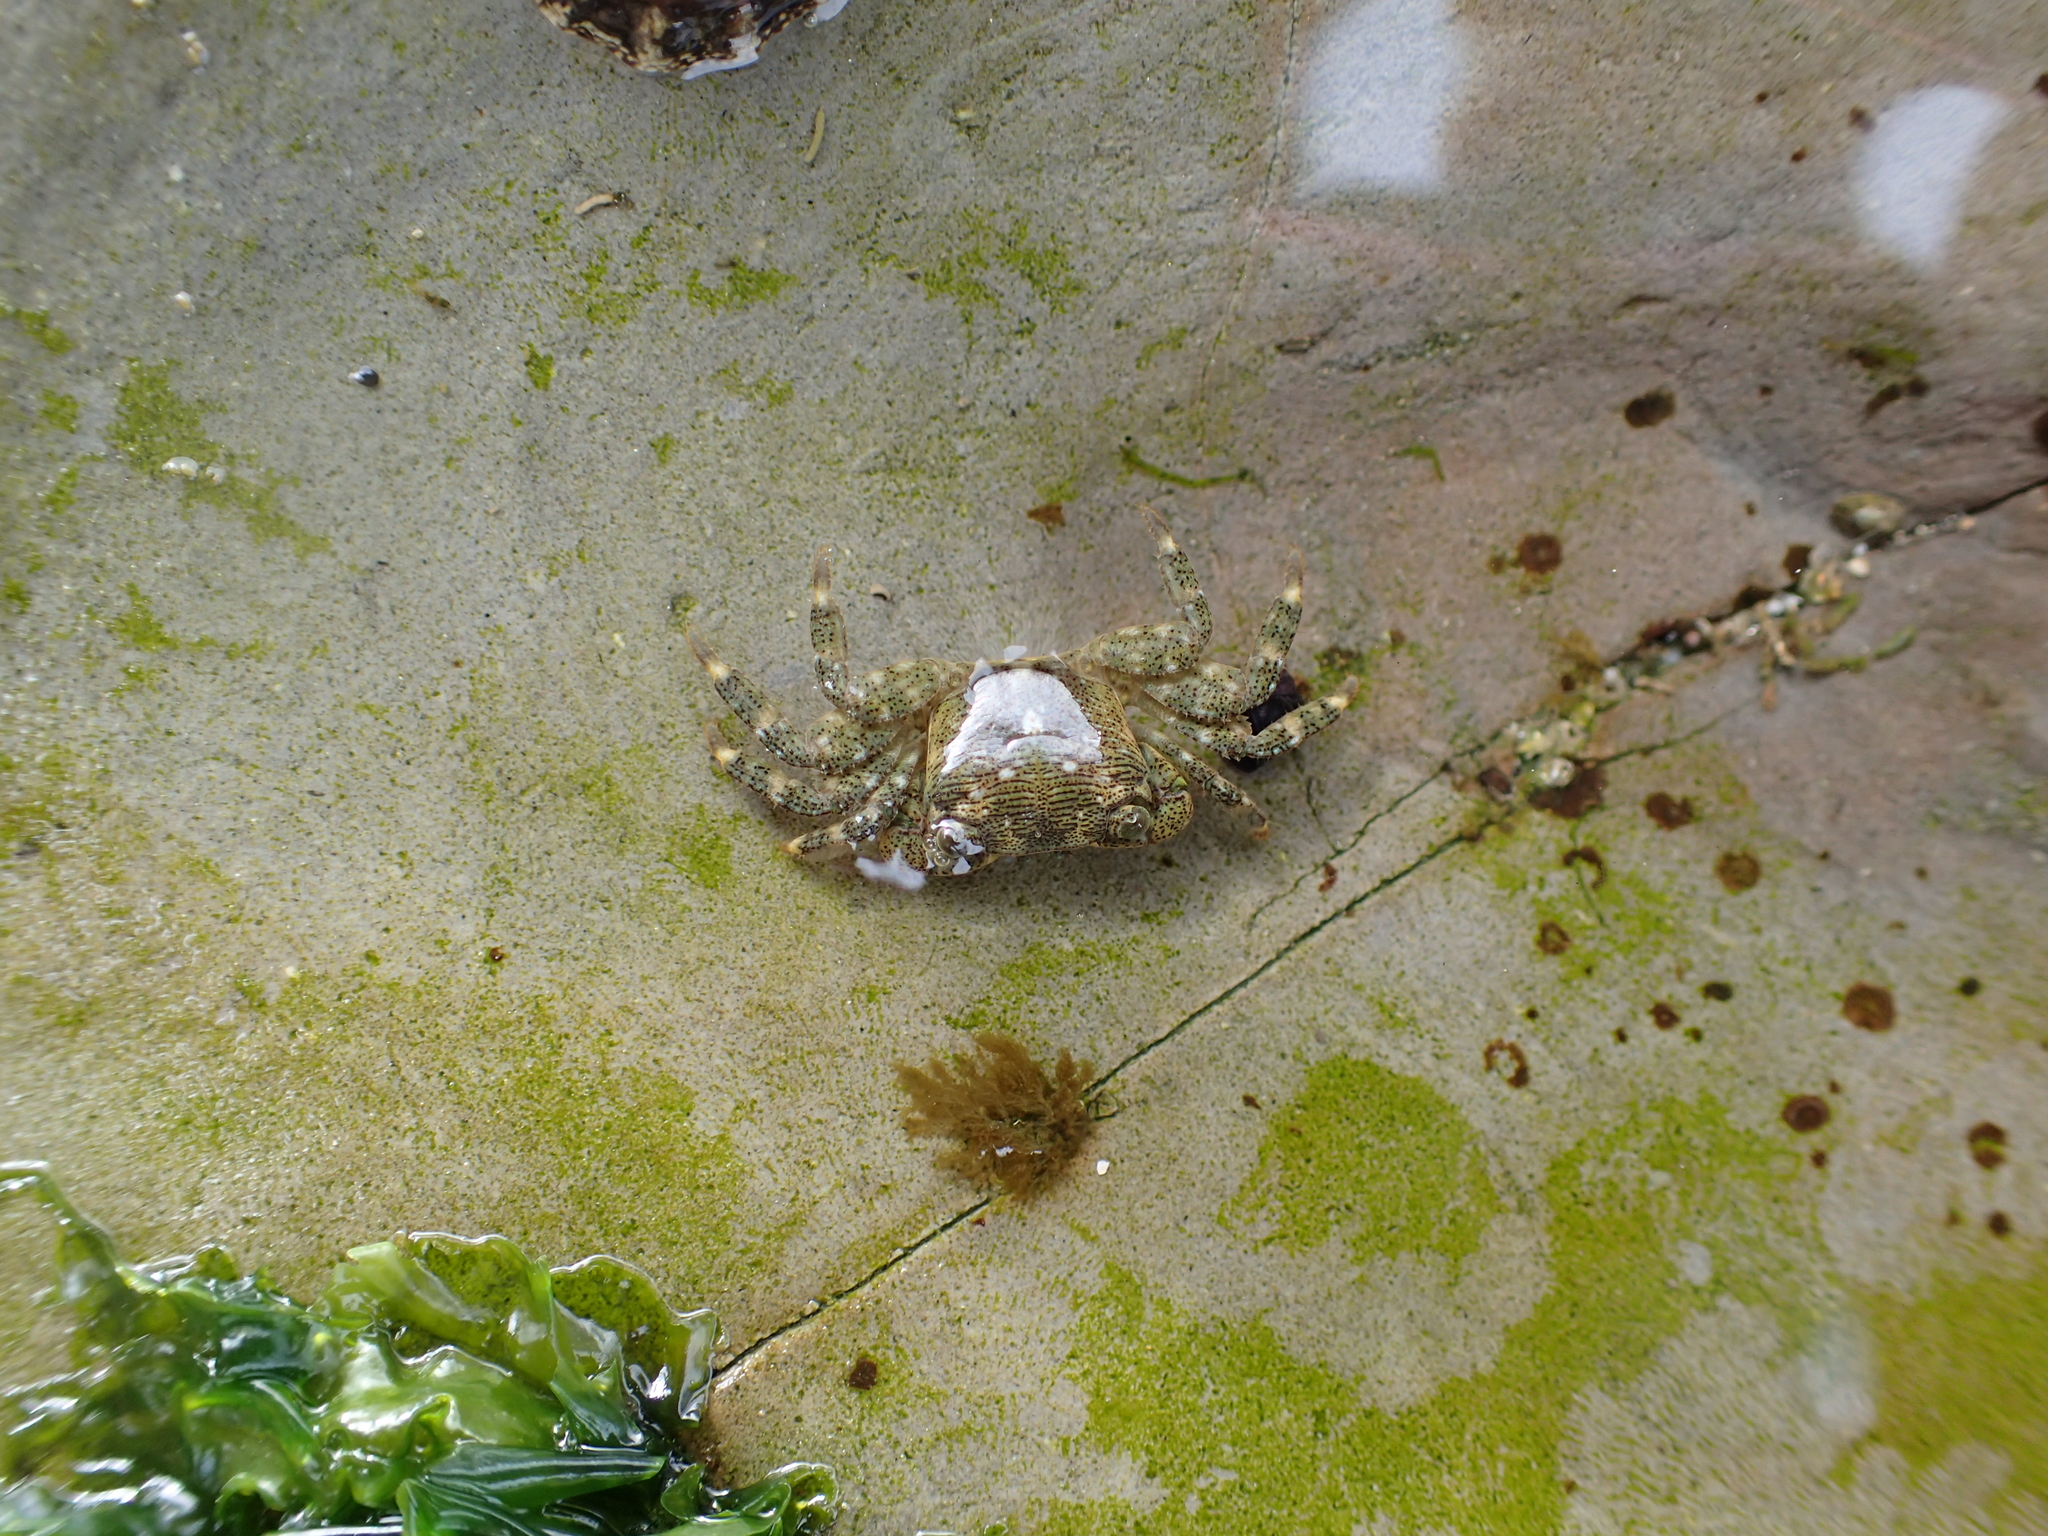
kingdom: Animalia
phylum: Arthropoda
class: Malacostraca
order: Decapoda
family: Grapsidae
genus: Pachygrapsus
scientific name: Pachygrapsus crassipes
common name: Striped shore crab
